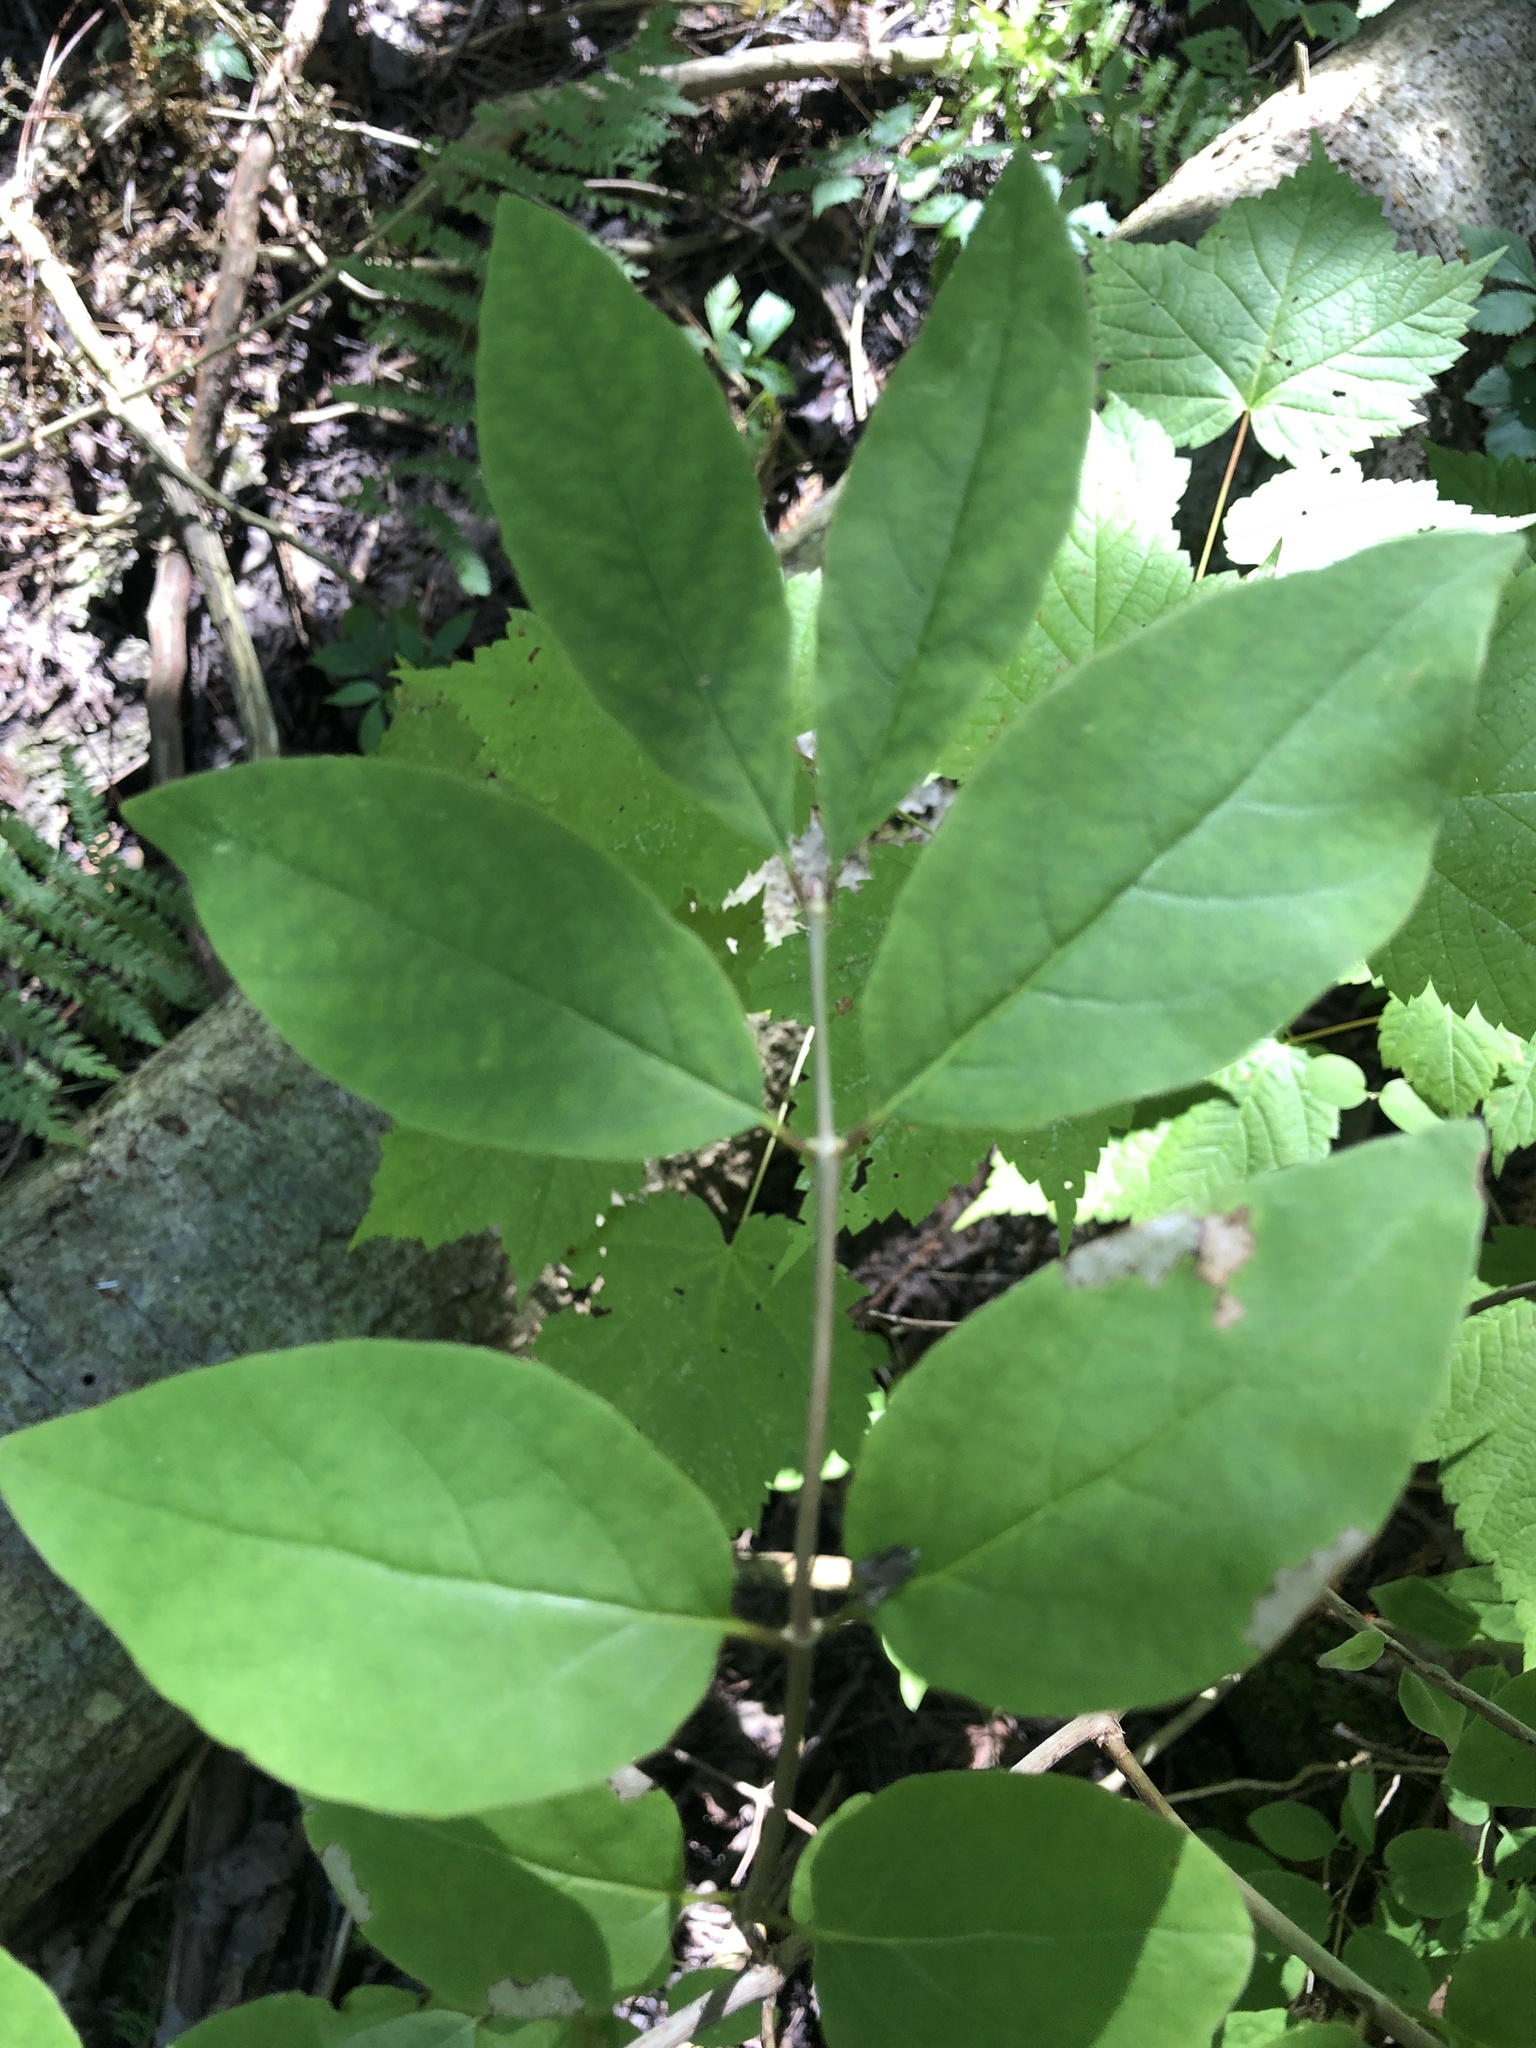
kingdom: Plantae
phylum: Tracheophyta
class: Magnoliopsida
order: Dipsacales
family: Caprifoliaceae
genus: Lonicera
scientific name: Lonicera canadensis
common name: American fly-honeysuckle
